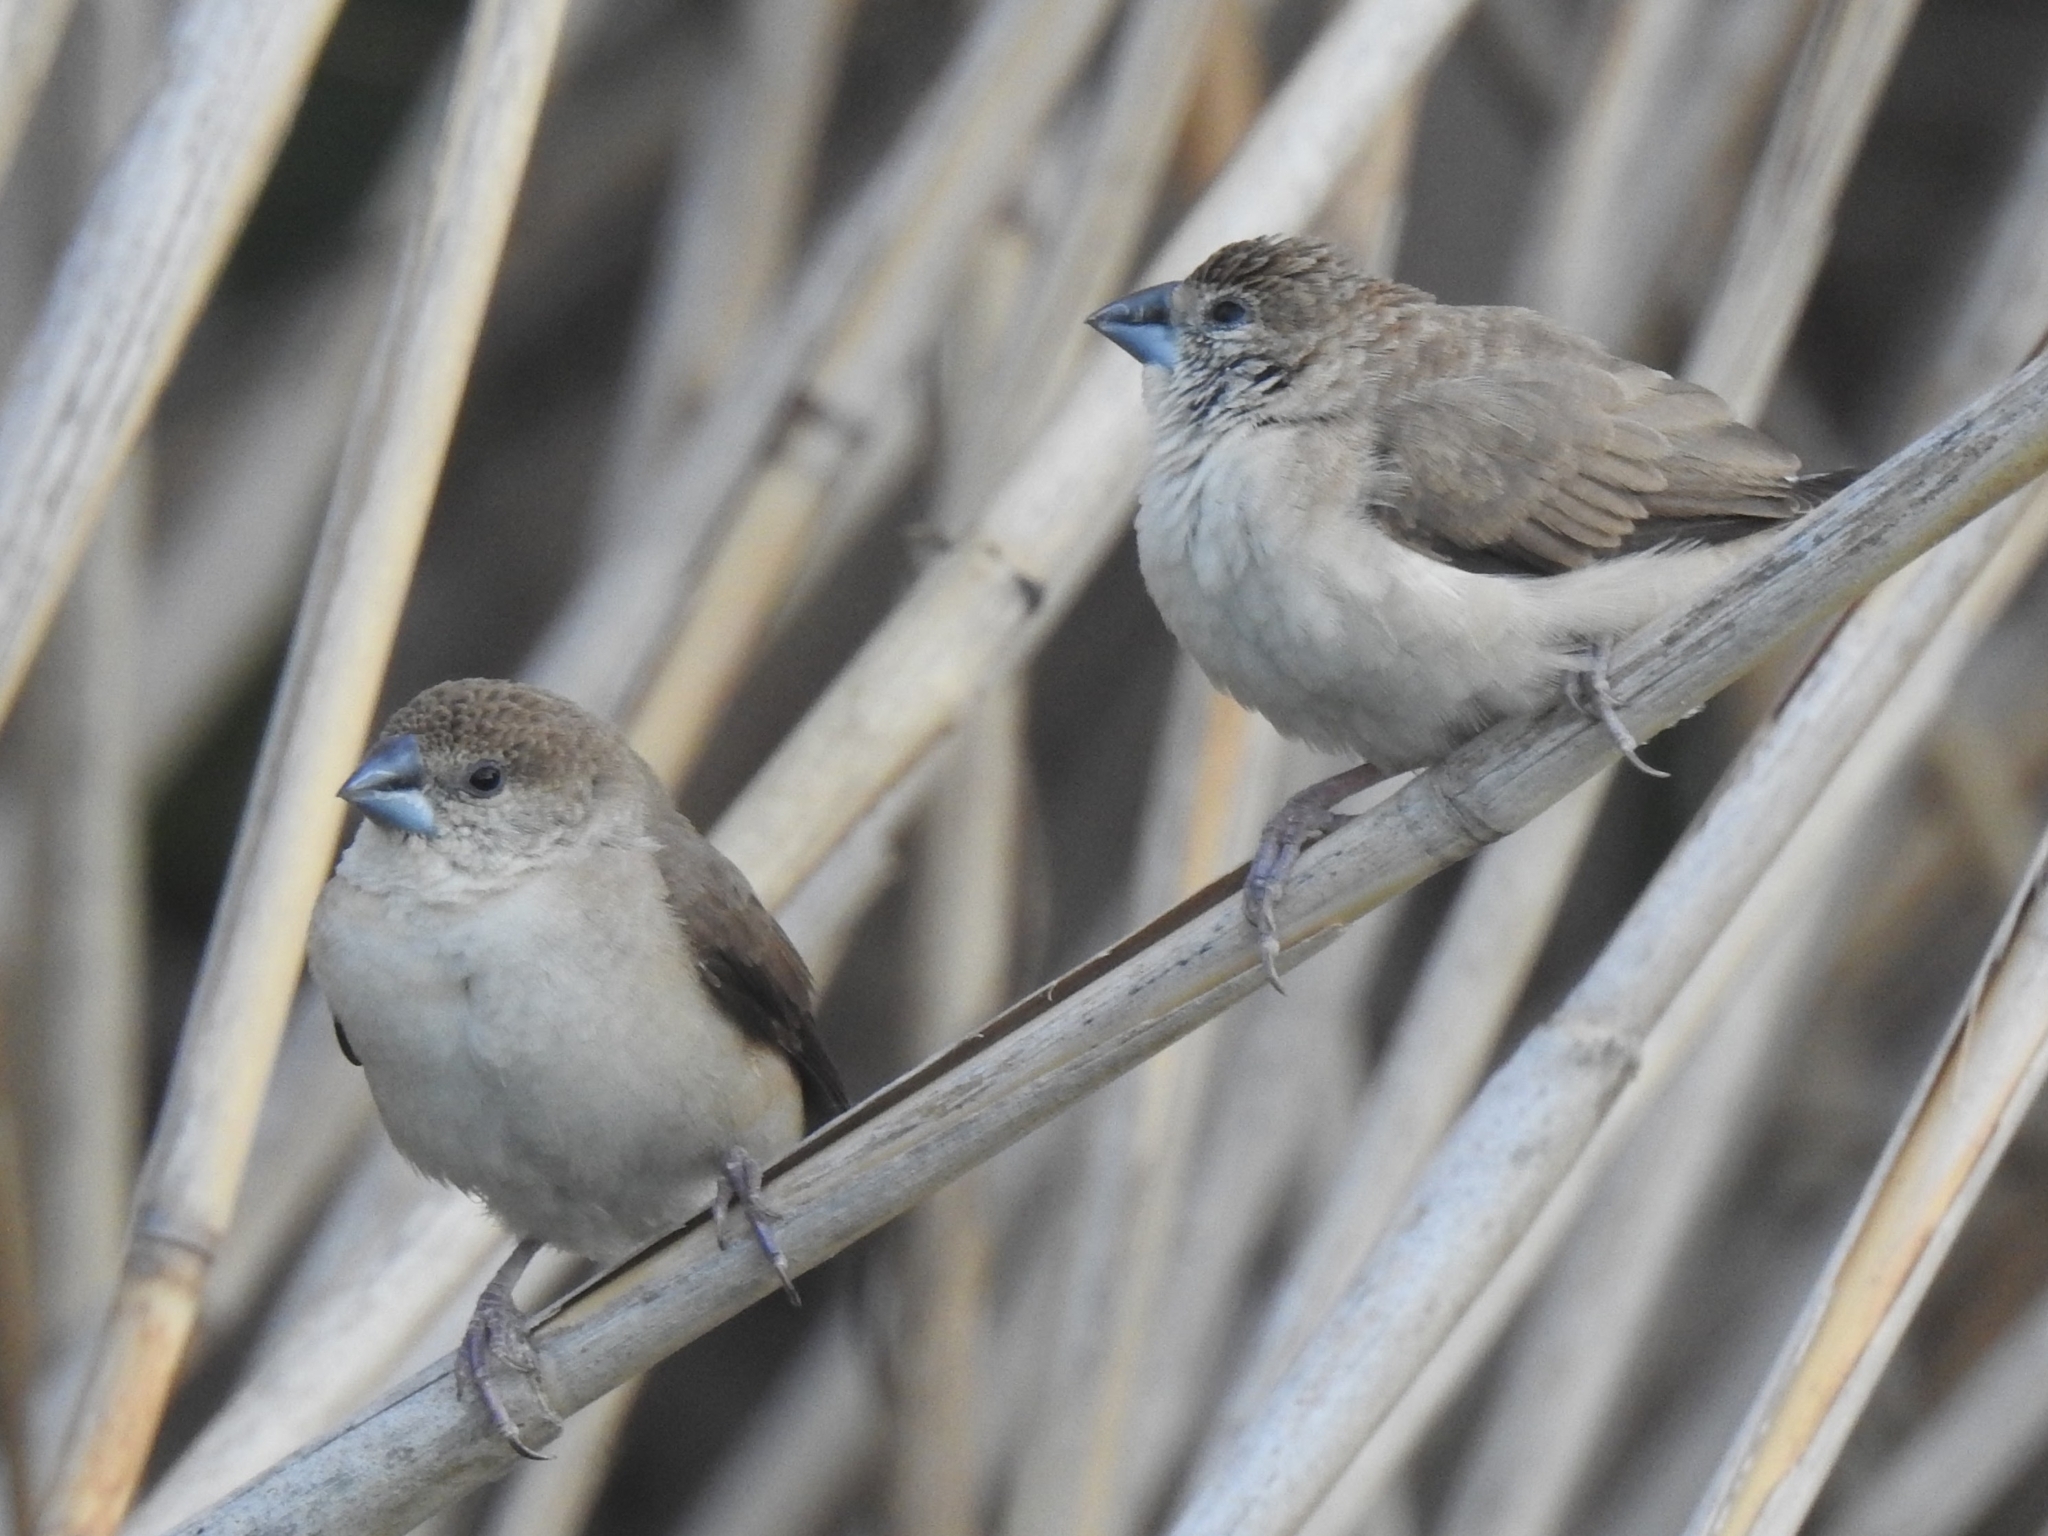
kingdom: Animalia
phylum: Chordata
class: Aves
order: Passeriformes
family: Estrildidae
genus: Euodice
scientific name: Euodice malabarica
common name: Indian silverbill
